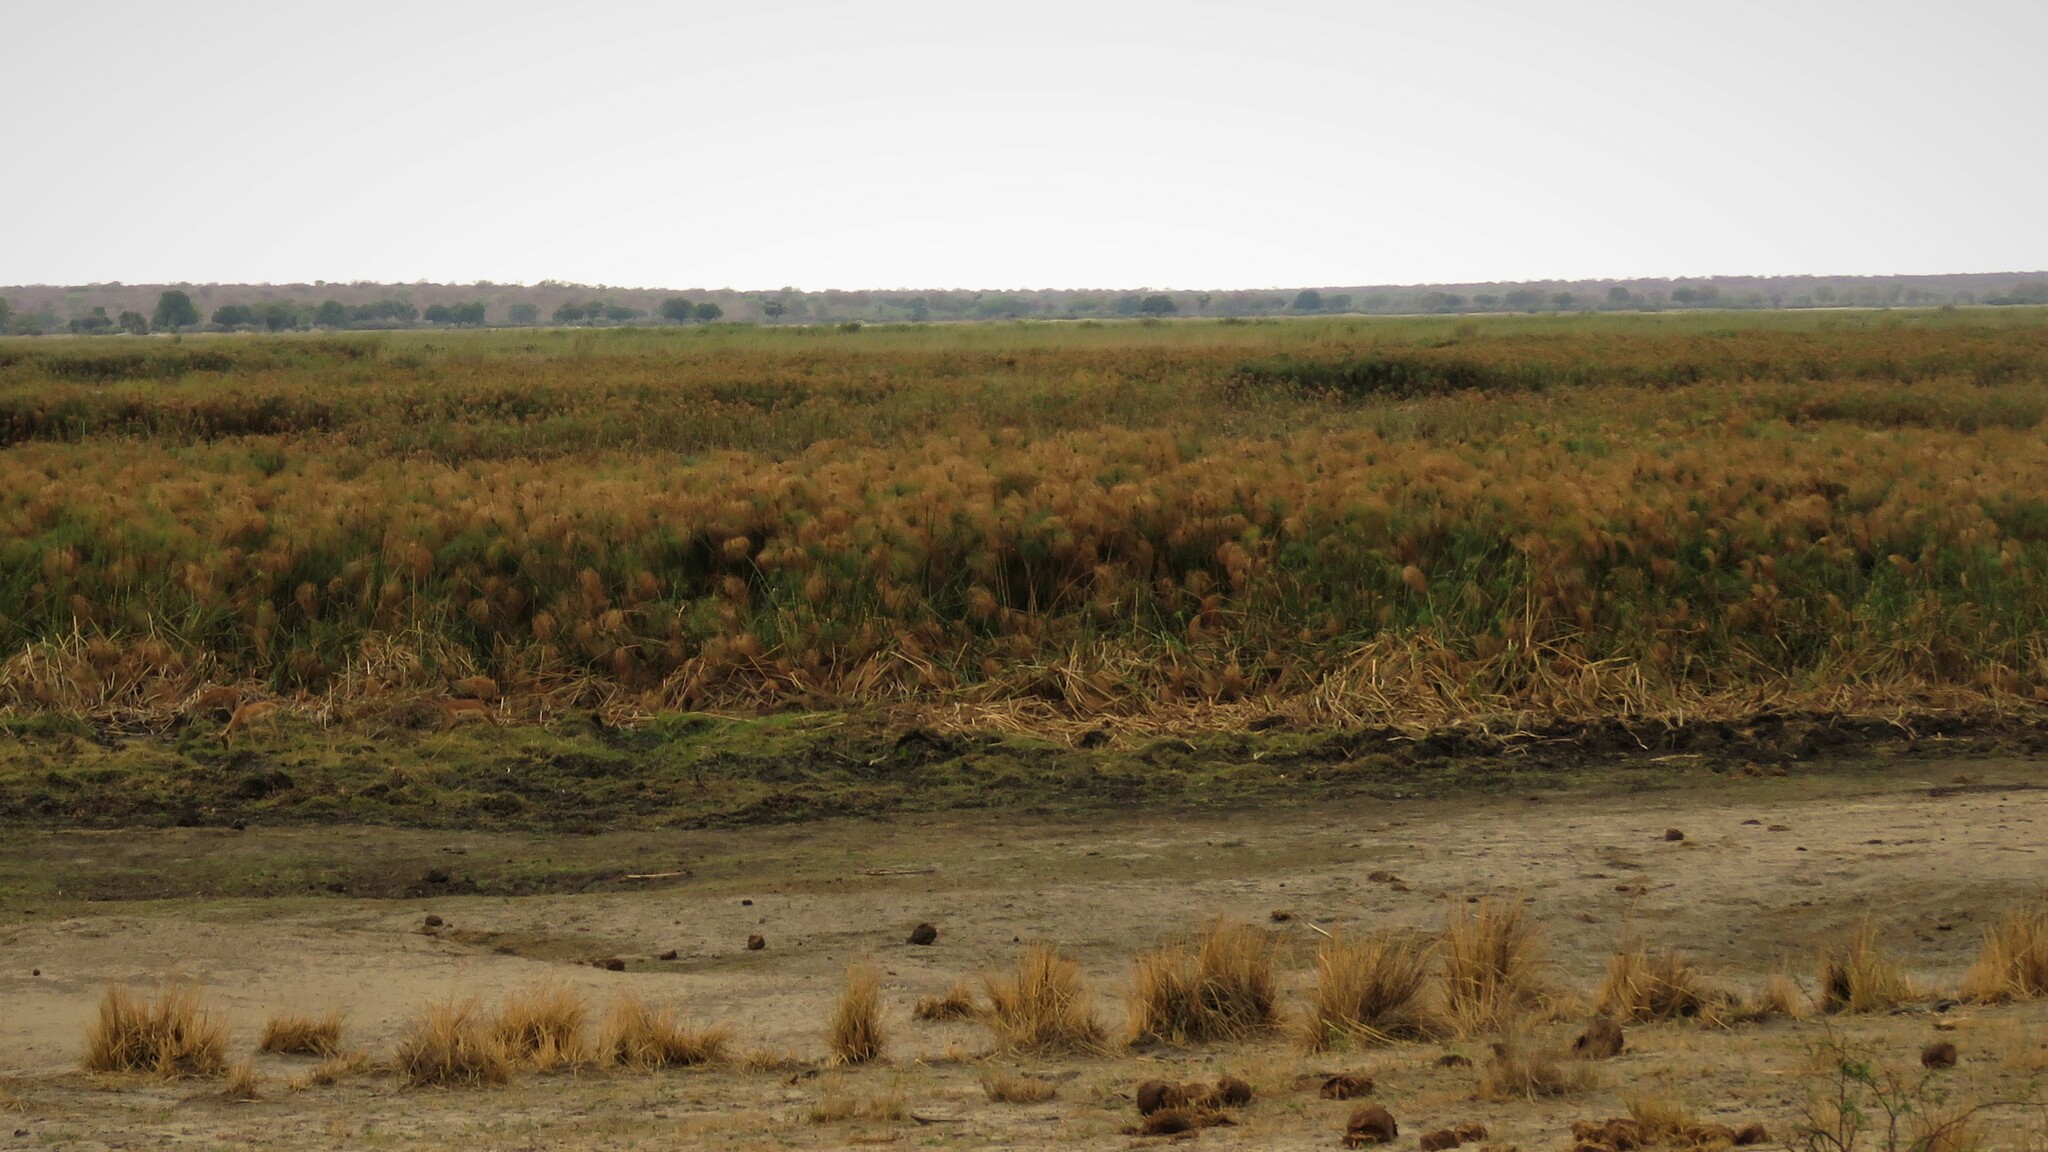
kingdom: Plantae
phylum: Tracheophyta
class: Liliopsida
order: Poales
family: Cyperaceae
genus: Cyperus
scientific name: Cyperus papyrus
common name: Papyrus
